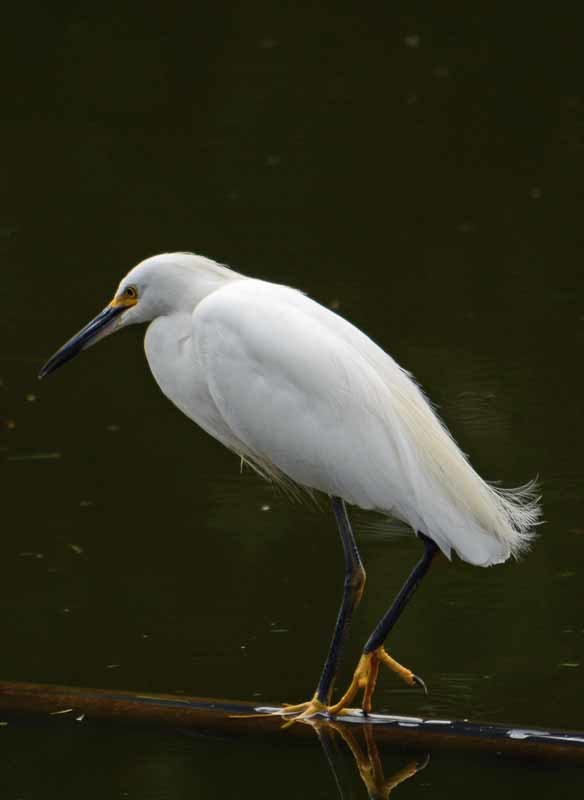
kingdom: Animalia
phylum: Chordata
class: Aves
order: Pelecaniformes
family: Ardeidae
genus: Egretta
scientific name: Egretta thula
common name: Snowy egret
